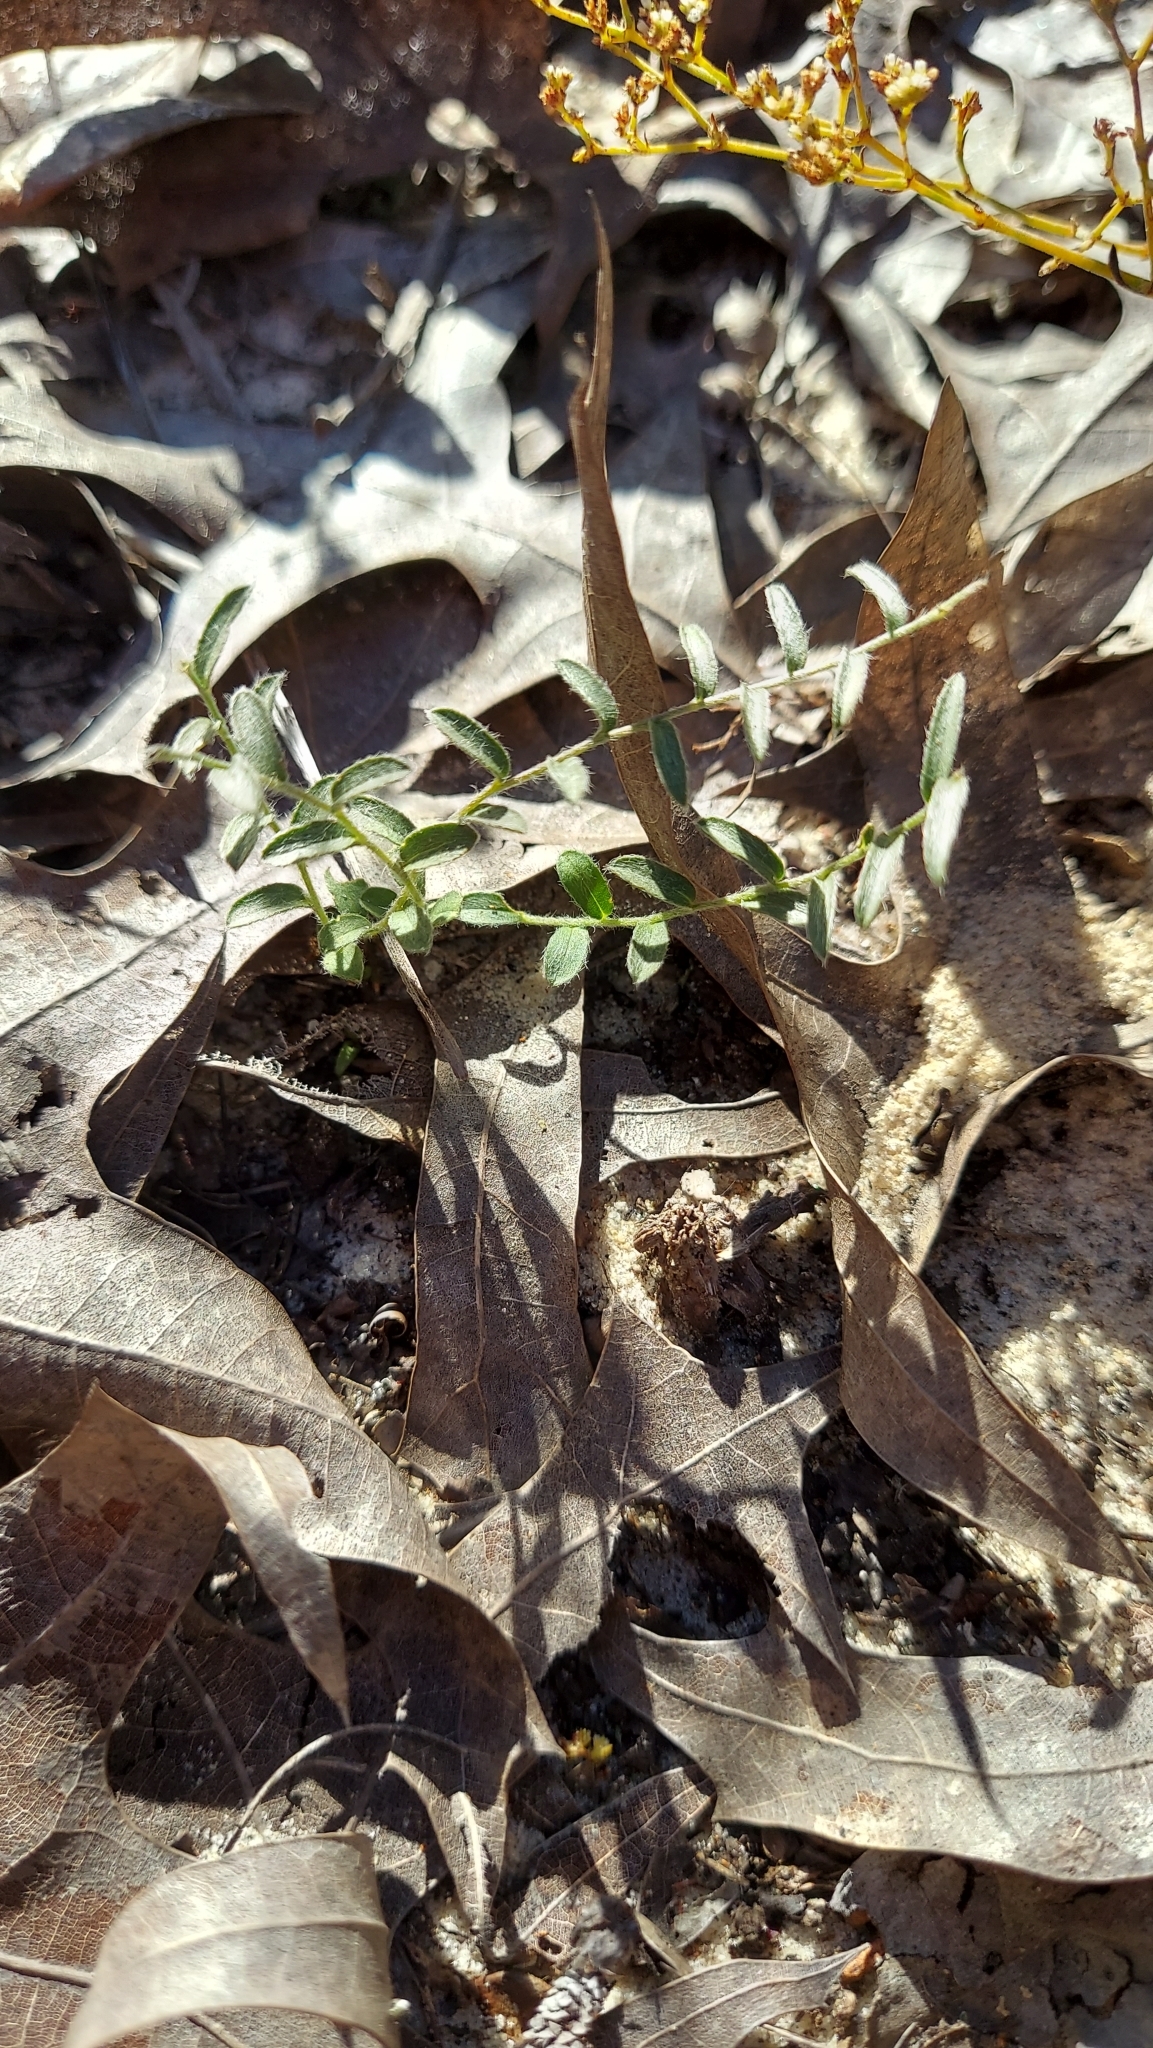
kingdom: Plantae
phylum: Tracheophyta
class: Magnoliopsida
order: Solanales
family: Convolvulaceae
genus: Stylisma
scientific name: Stylisma abdita
